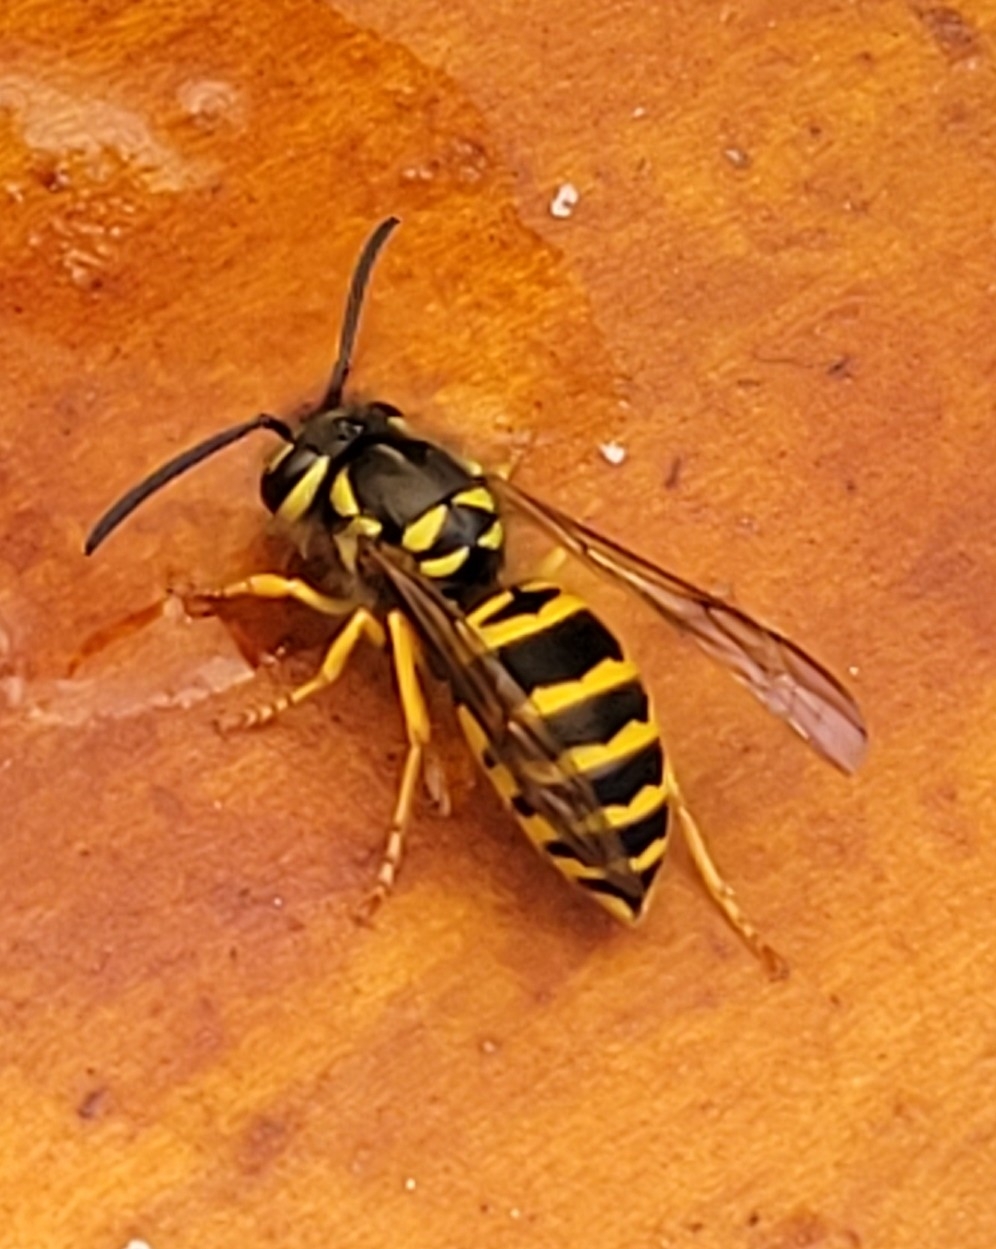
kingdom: Animalia
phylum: Arthropoda
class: Insecta
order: Hymenoptera
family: Vespidae
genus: Vespula
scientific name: Vespula maculifrons
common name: Eastern yellowjacket
